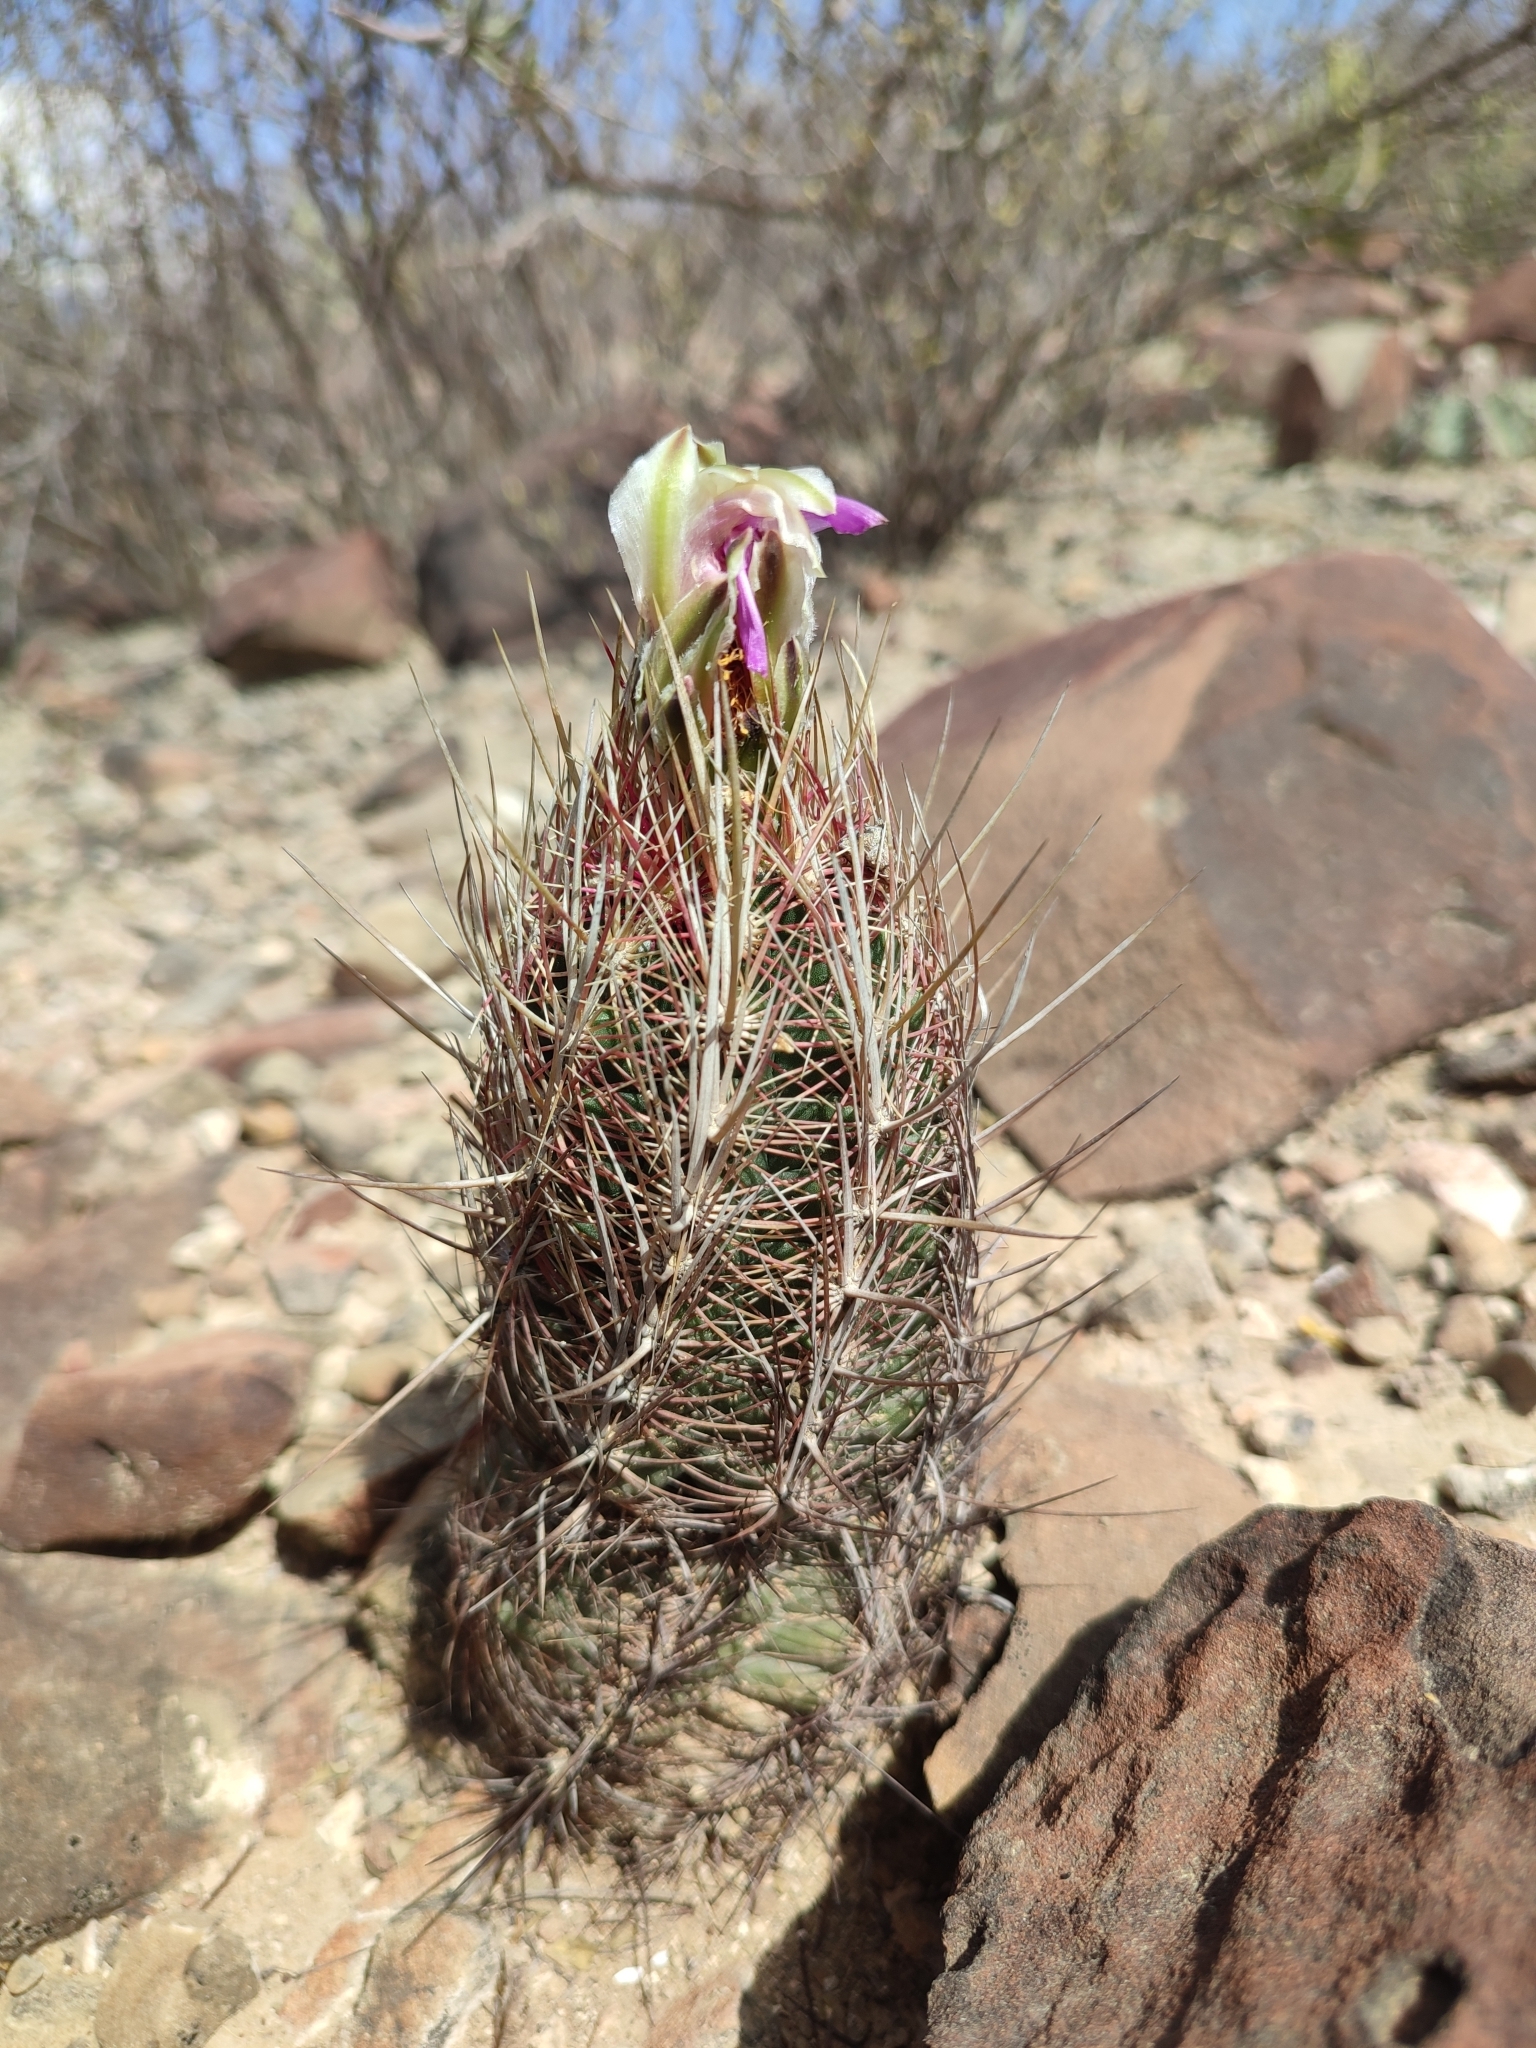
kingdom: Plantae
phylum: Tracheophyta
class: Magnoliopsida
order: Caryophyllales
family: Cactaceae
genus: Thelocactus
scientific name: Thelocactus bicolor
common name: Glory of texas
